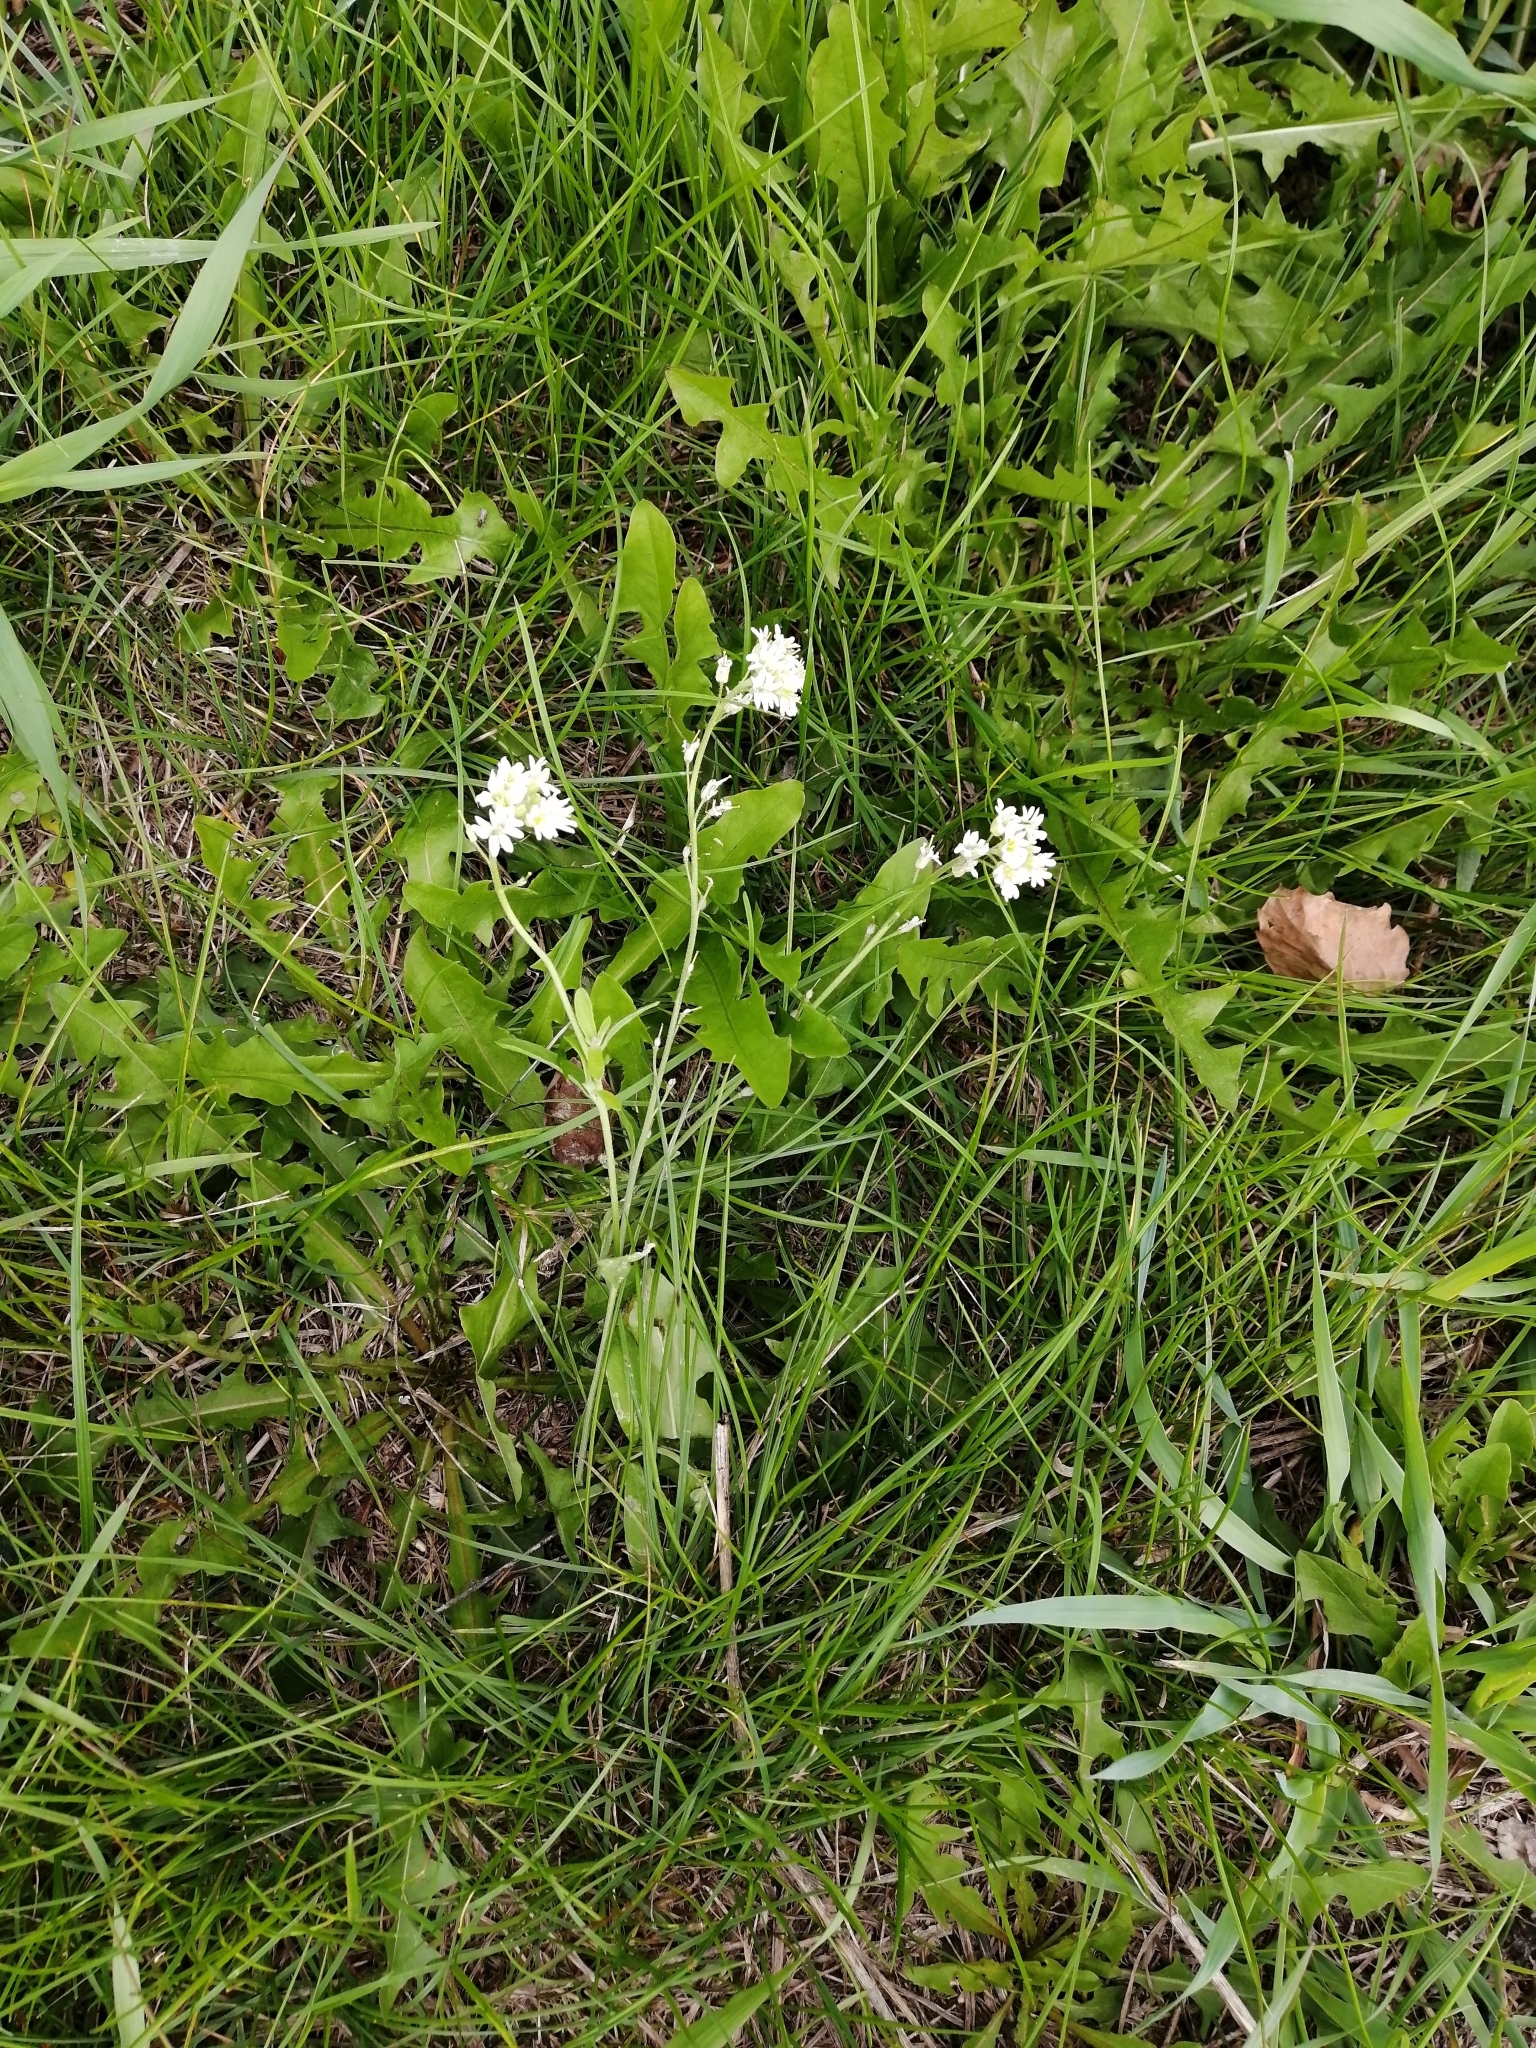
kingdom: Plantae
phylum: Tracheophyta
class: Magnoliopsida
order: Brassicales
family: Brassicaceae
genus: Berteroa
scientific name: Berteroa incana
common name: Hoary alison
